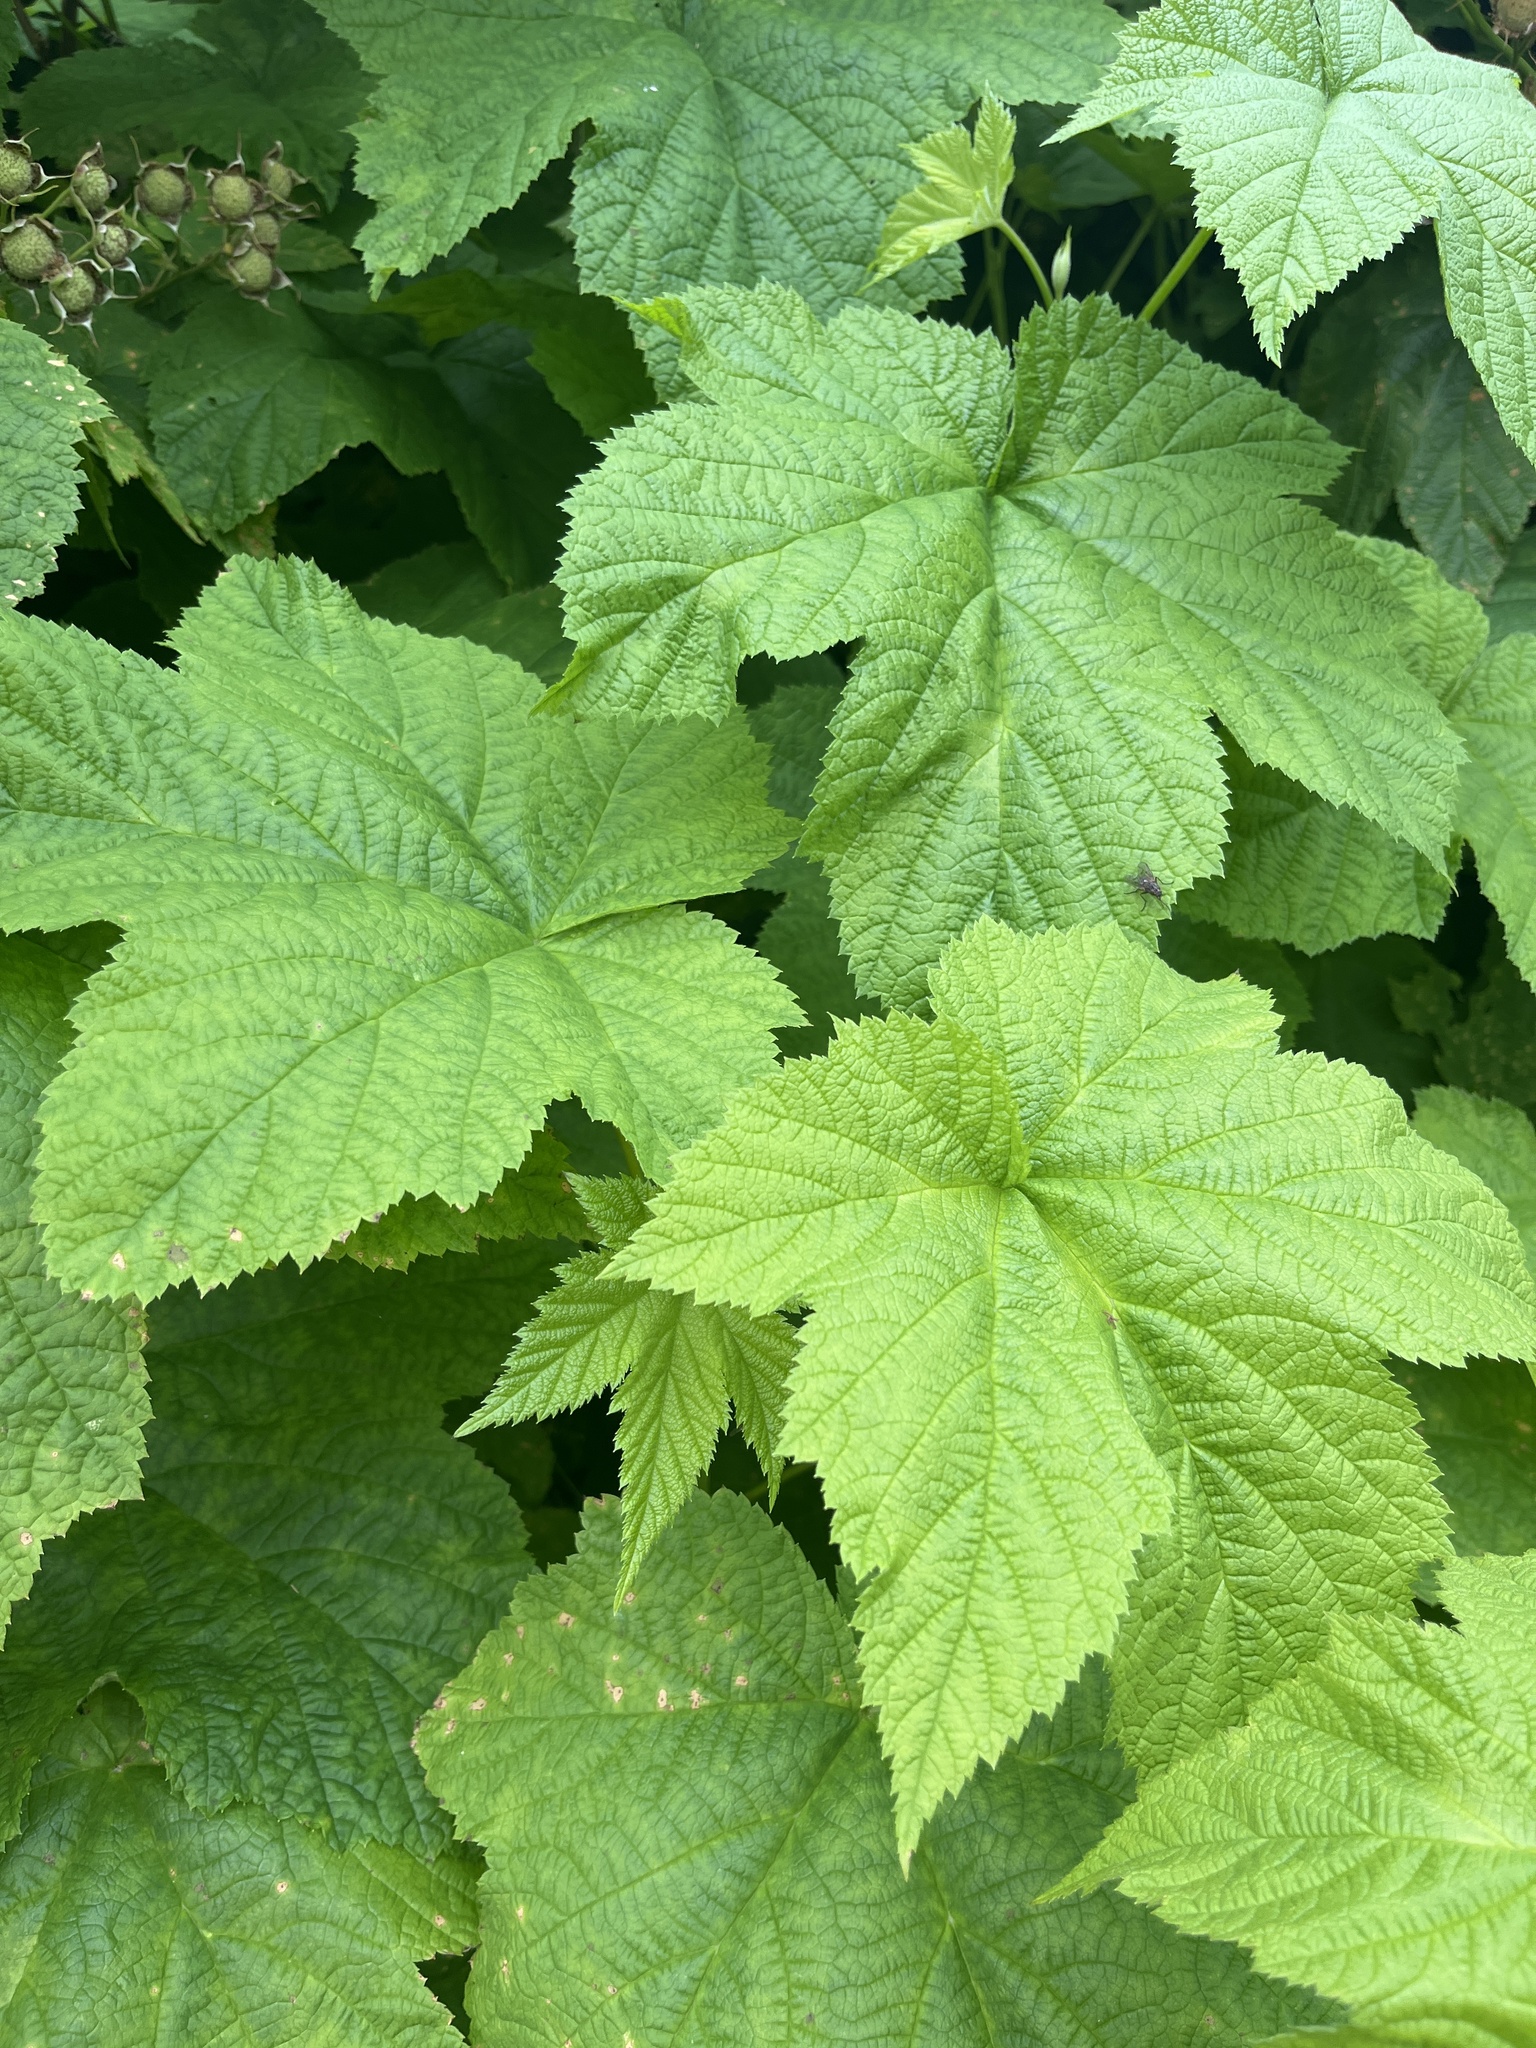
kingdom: Plantae
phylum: Tracheophyta
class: Magnoliopsida
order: Rosales
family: Rosaceae
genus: Rubus
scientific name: Rubus parviflorus
